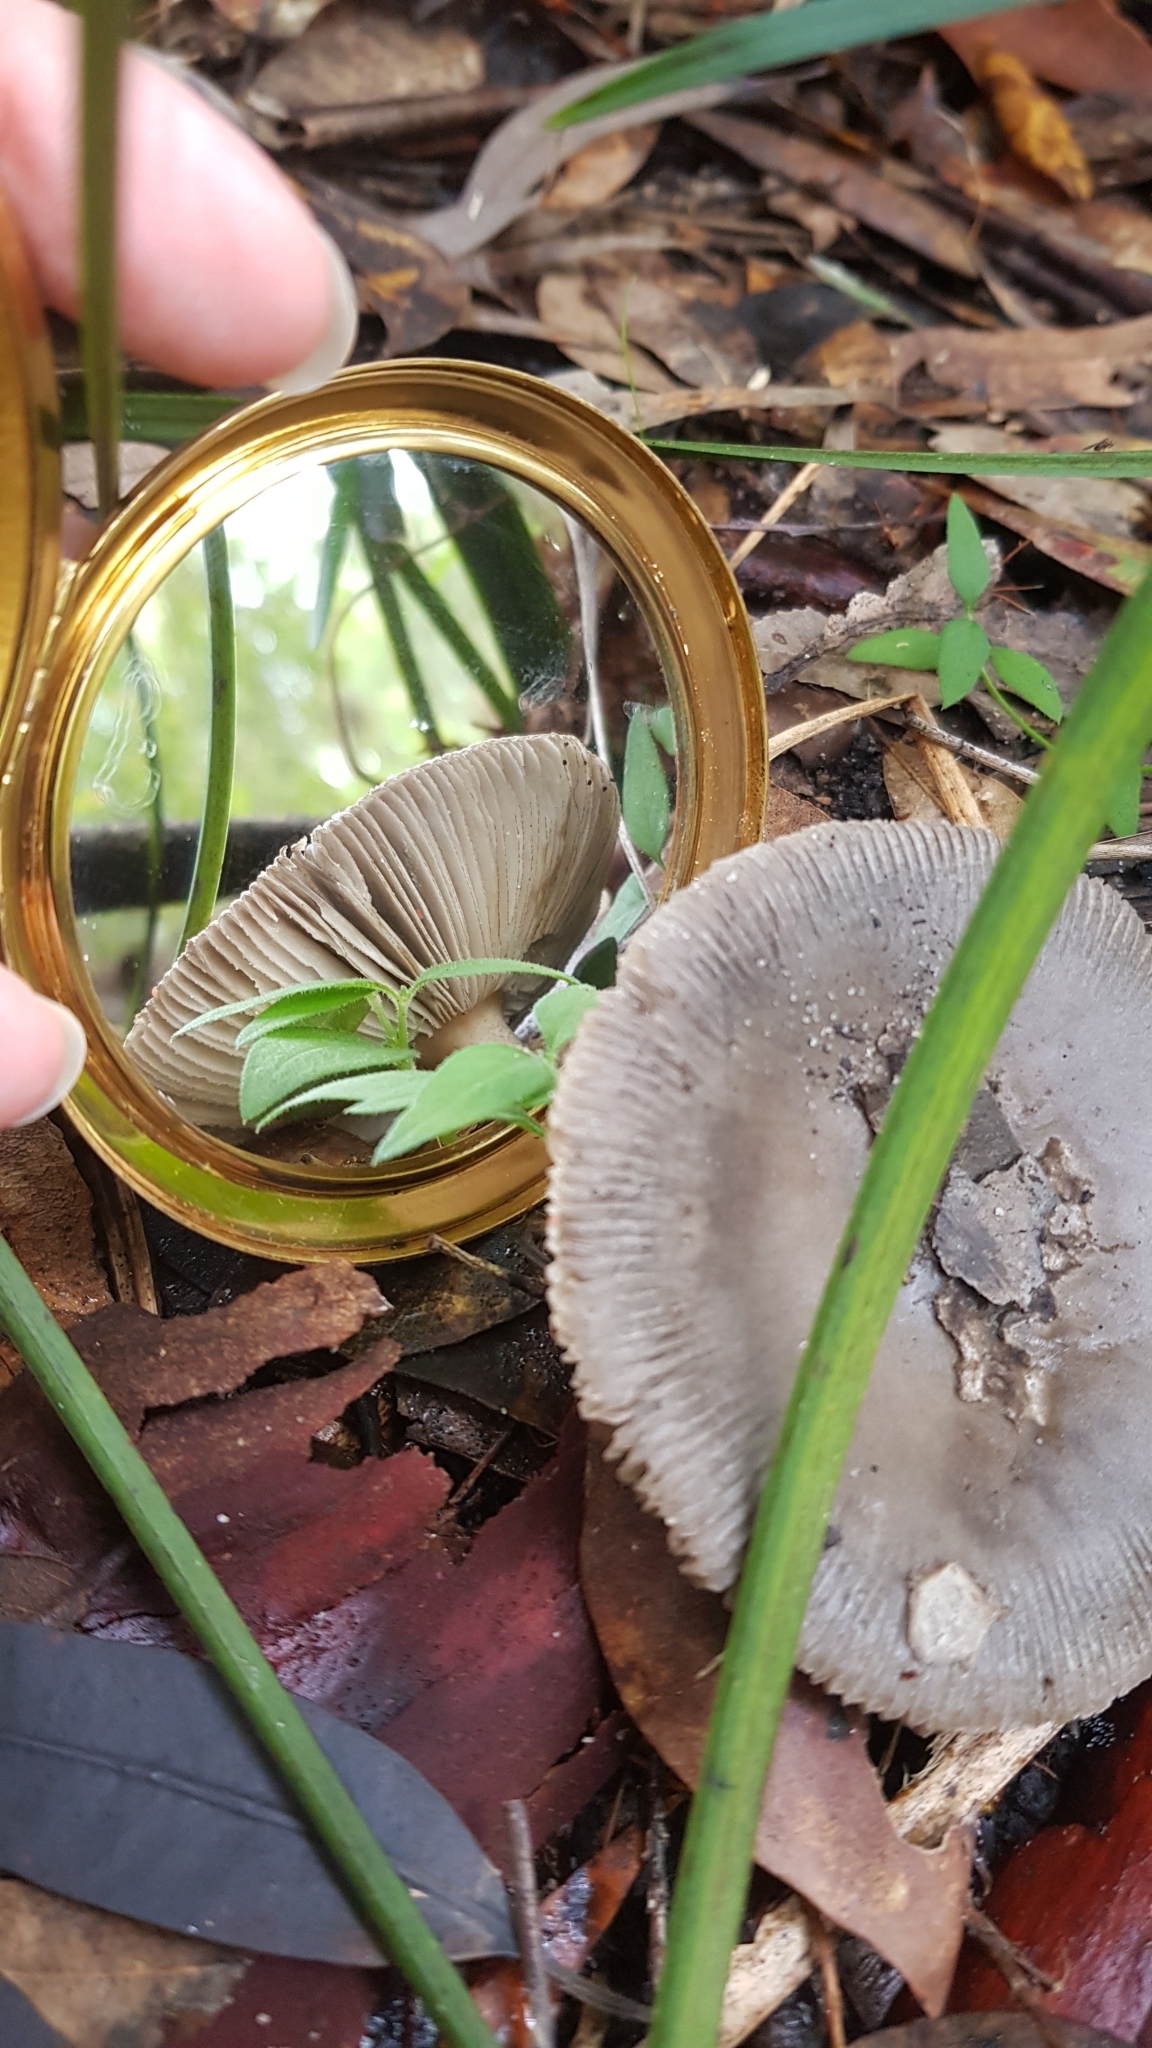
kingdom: Fungi
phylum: Basidiomycota
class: Agaricomycetes
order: Agaricales
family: Amanitaceae
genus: Amanita
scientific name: Amanita cheelii
